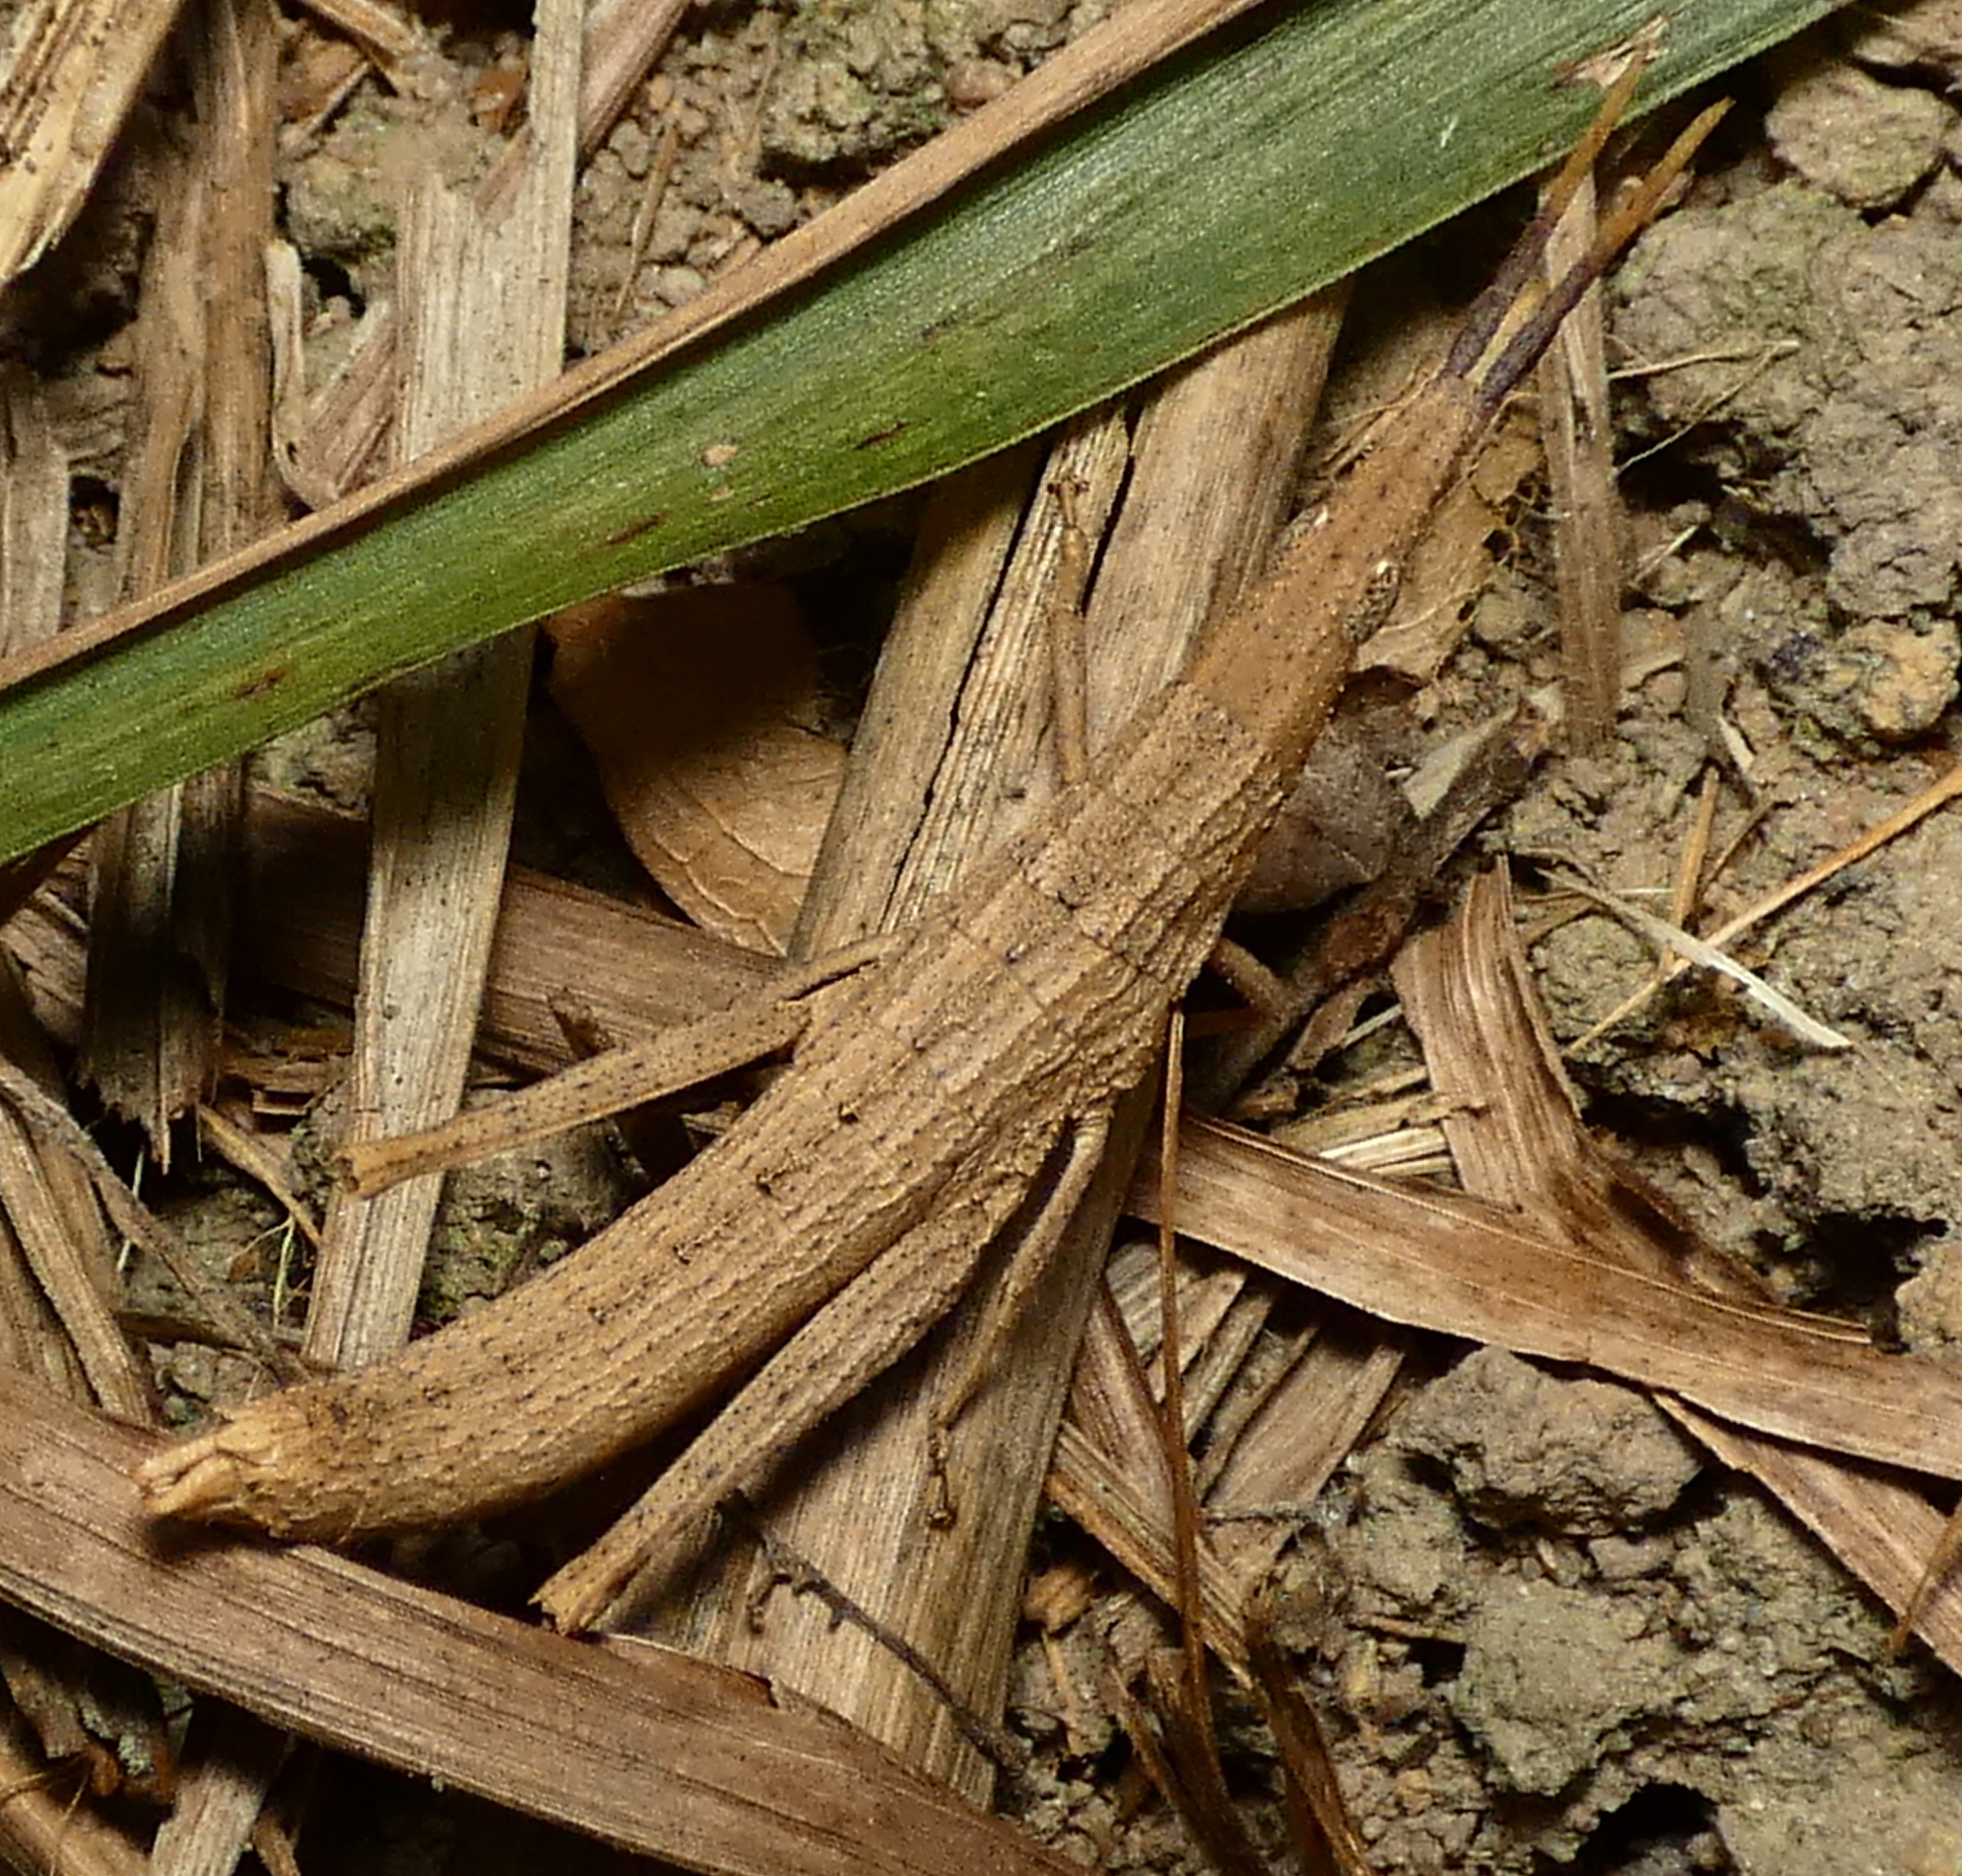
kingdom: Animalia
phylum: Arthropoda
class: Insecta
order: Orthoptera
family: Pyrgomorphidae
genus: Algete
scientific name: Algete brunneri
